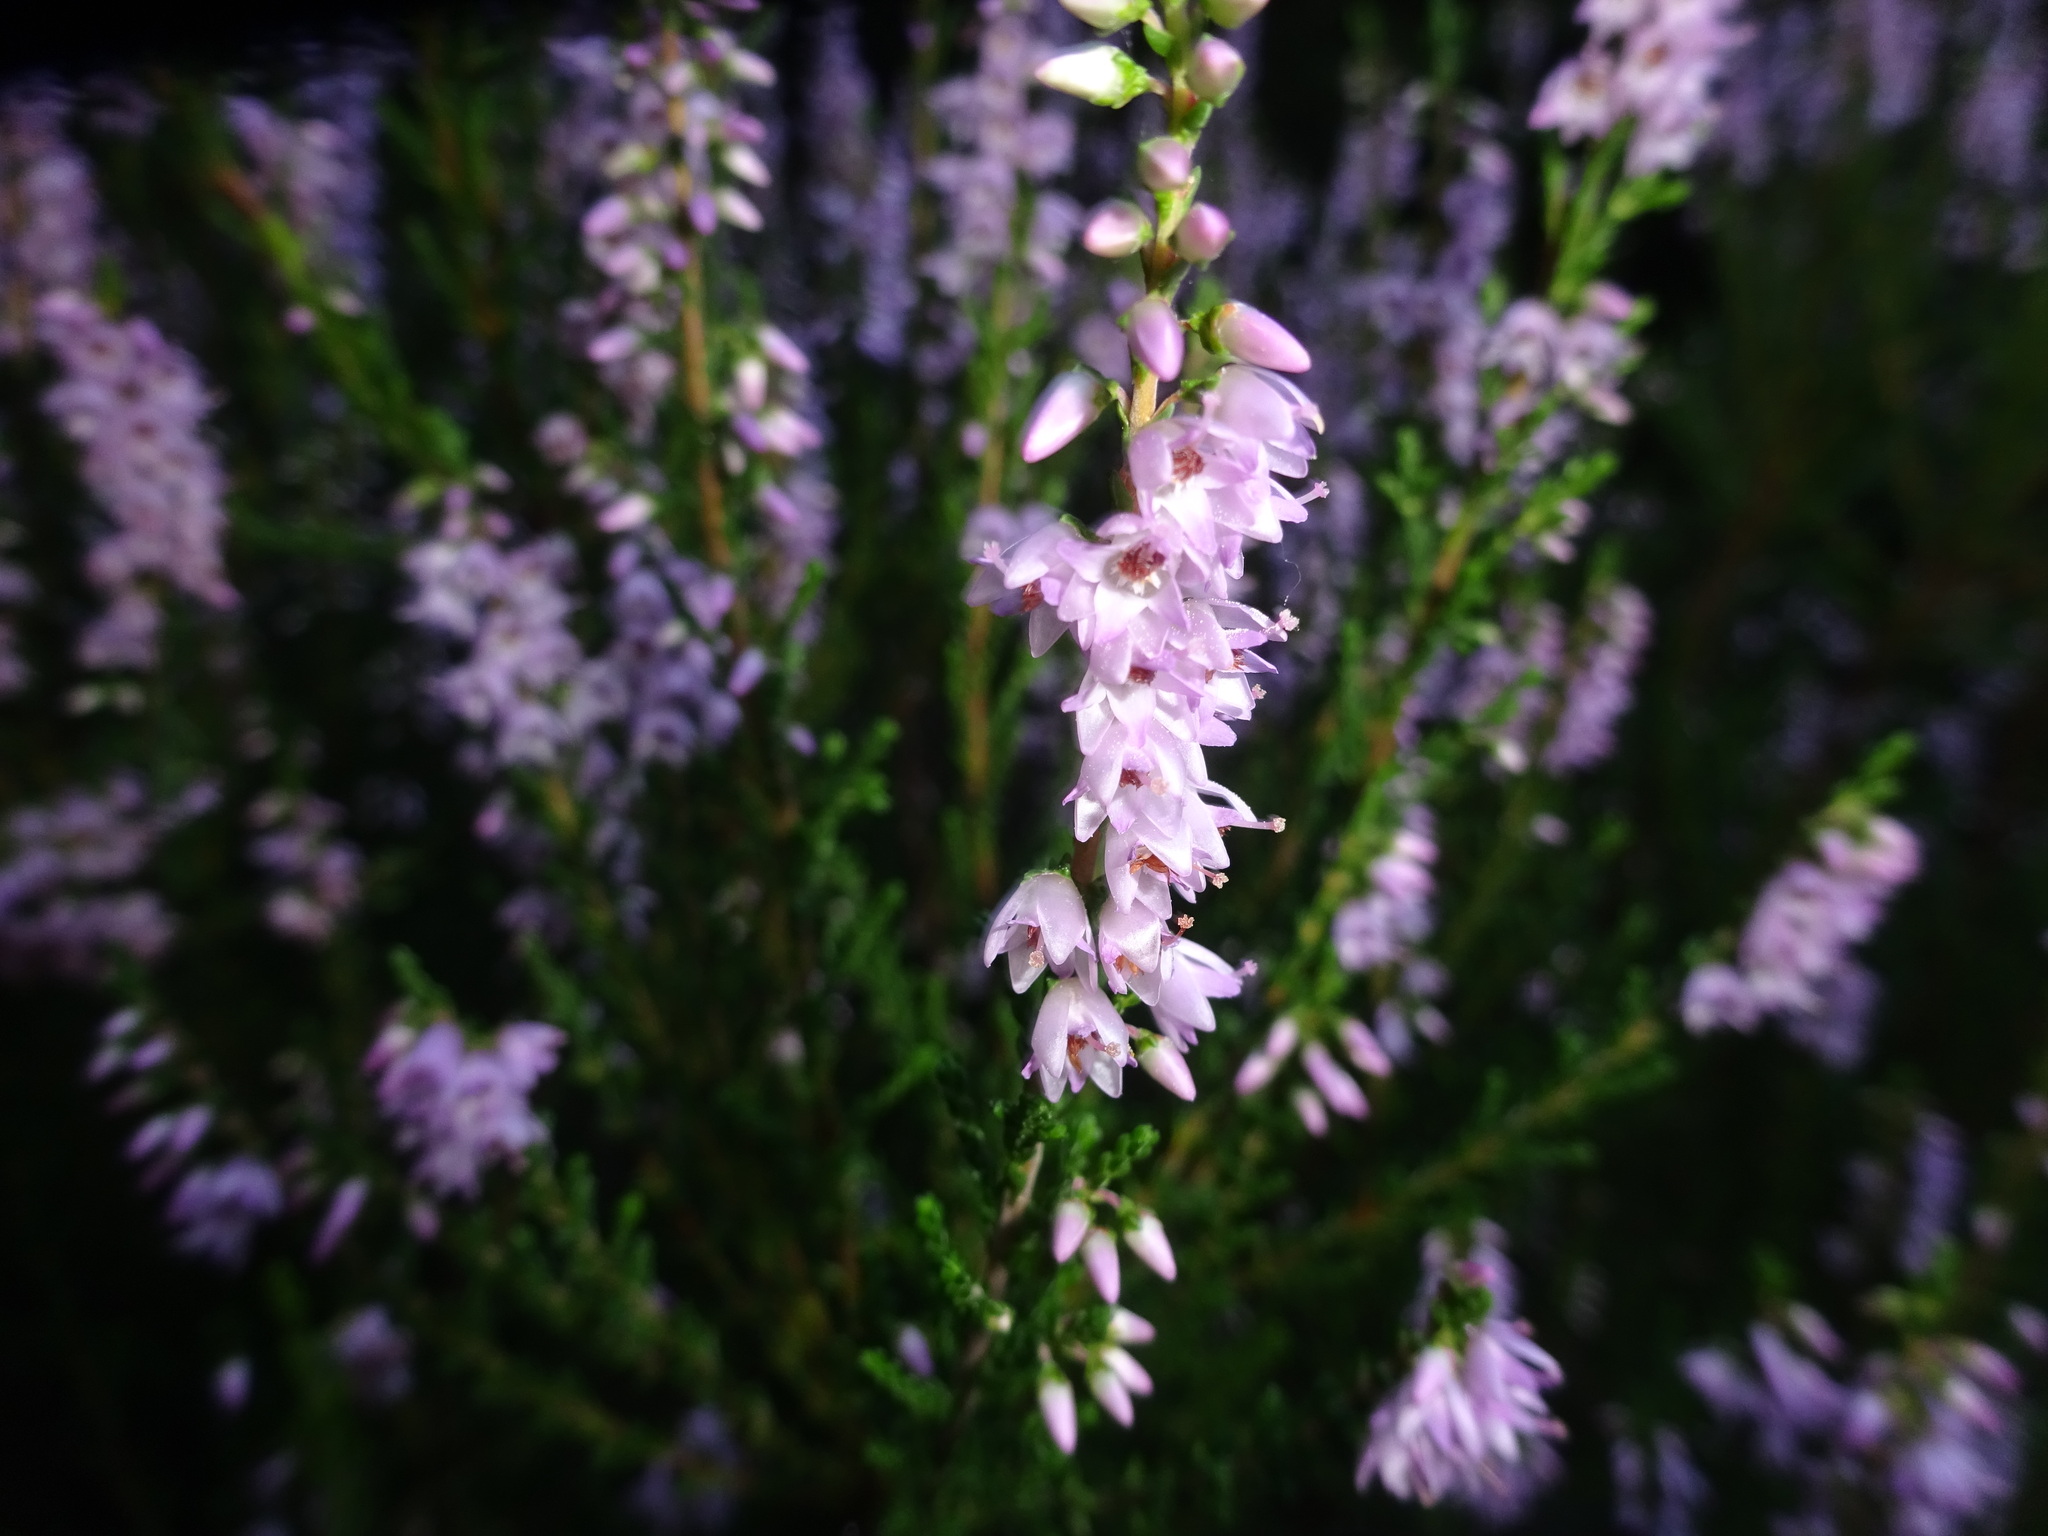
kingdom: Plantae
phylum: Tracheophyta
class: Magnoliopsida
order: Ericales
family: Ericaceae
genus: Calluna
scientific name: Calluna vulgaris
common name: Heather
